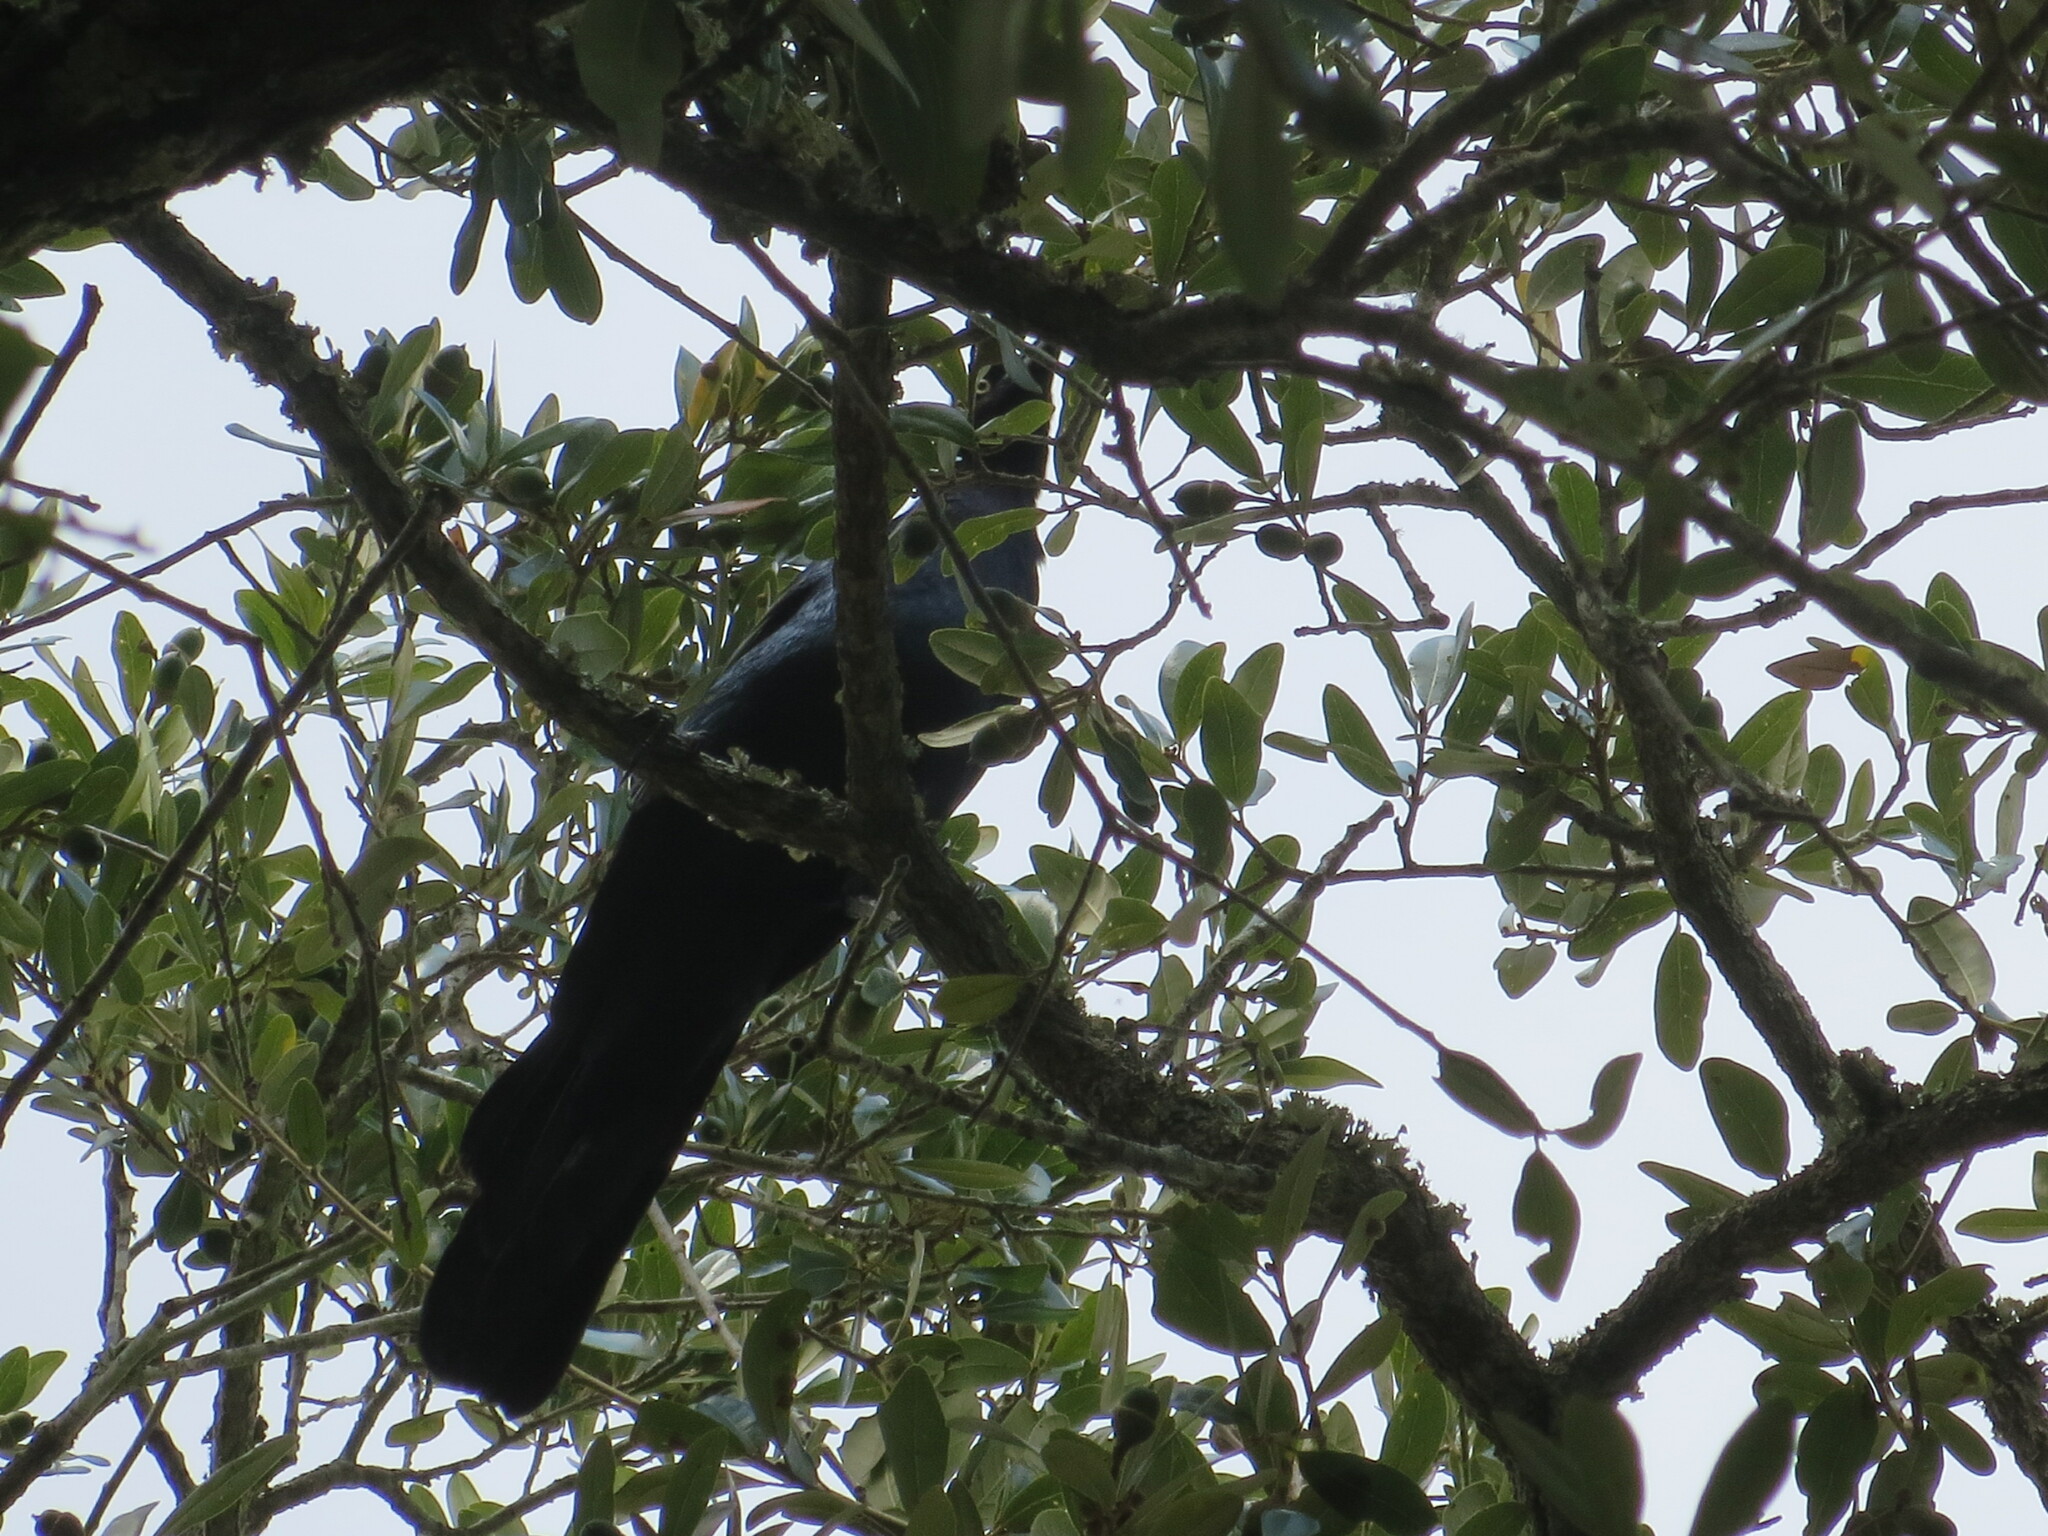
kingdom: Animalia
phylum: Chordata
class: Aves
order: Passeriformes
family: Icteridae
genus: Quiscalus
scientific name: Quiscalus major
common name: Boat-tailed grackle
